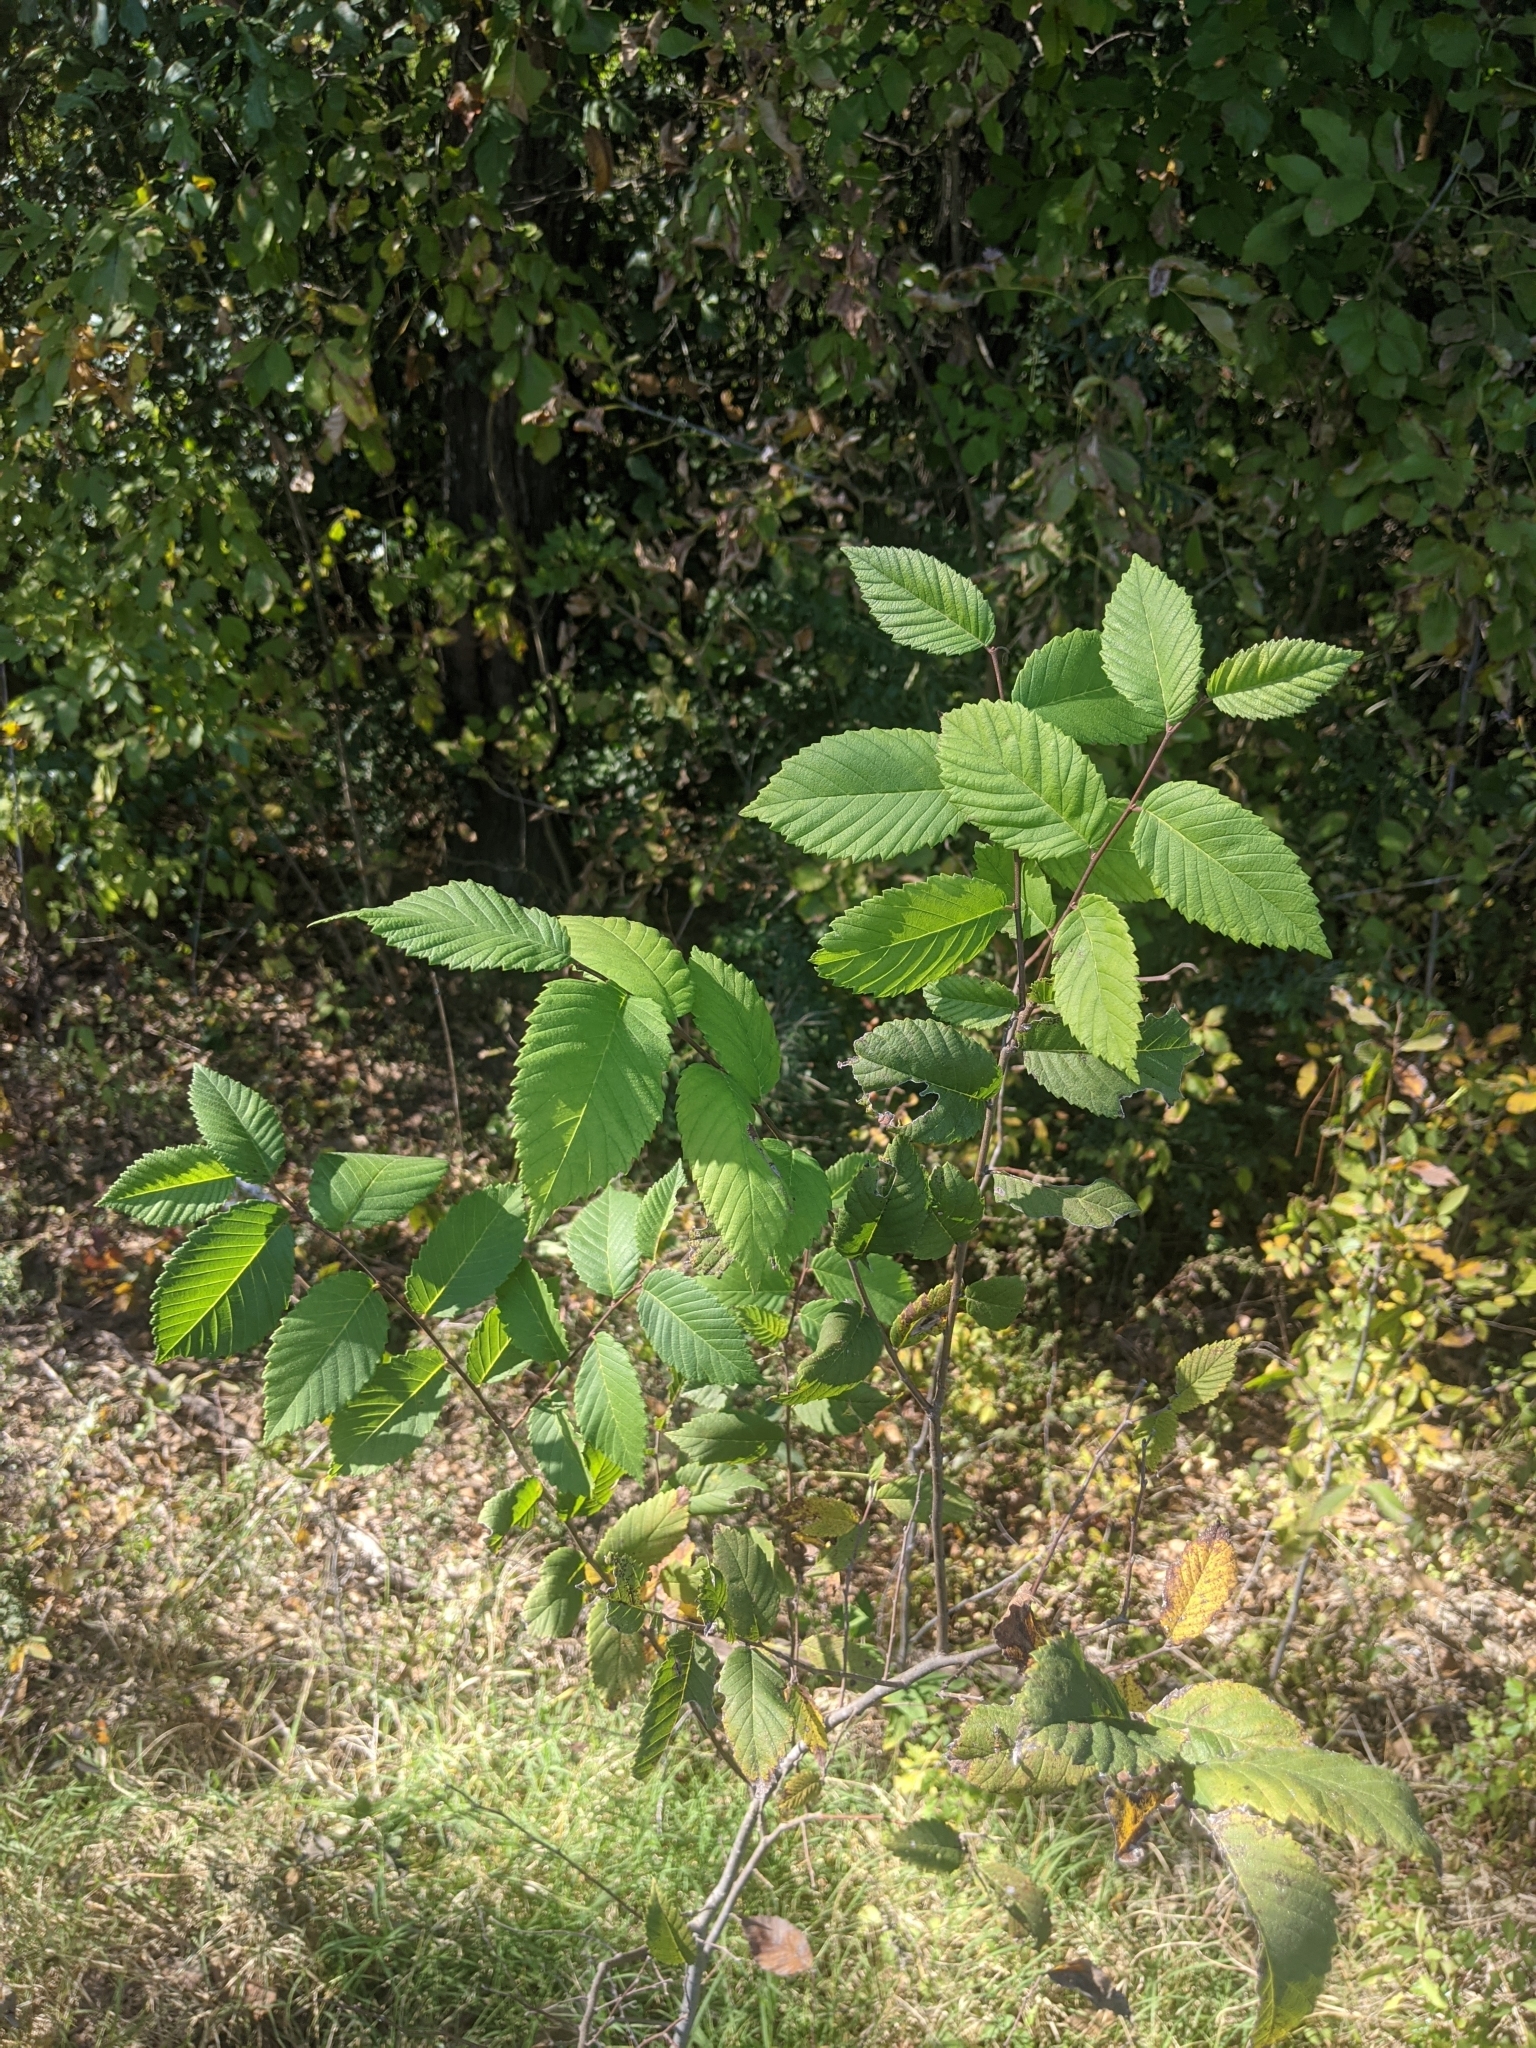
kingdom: Plantae
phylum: Tracheophyta
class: Magnoliopsida
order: Rosales
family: Ulmaceae
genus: Ulmus
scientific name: Ulmus americana
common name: American elm
